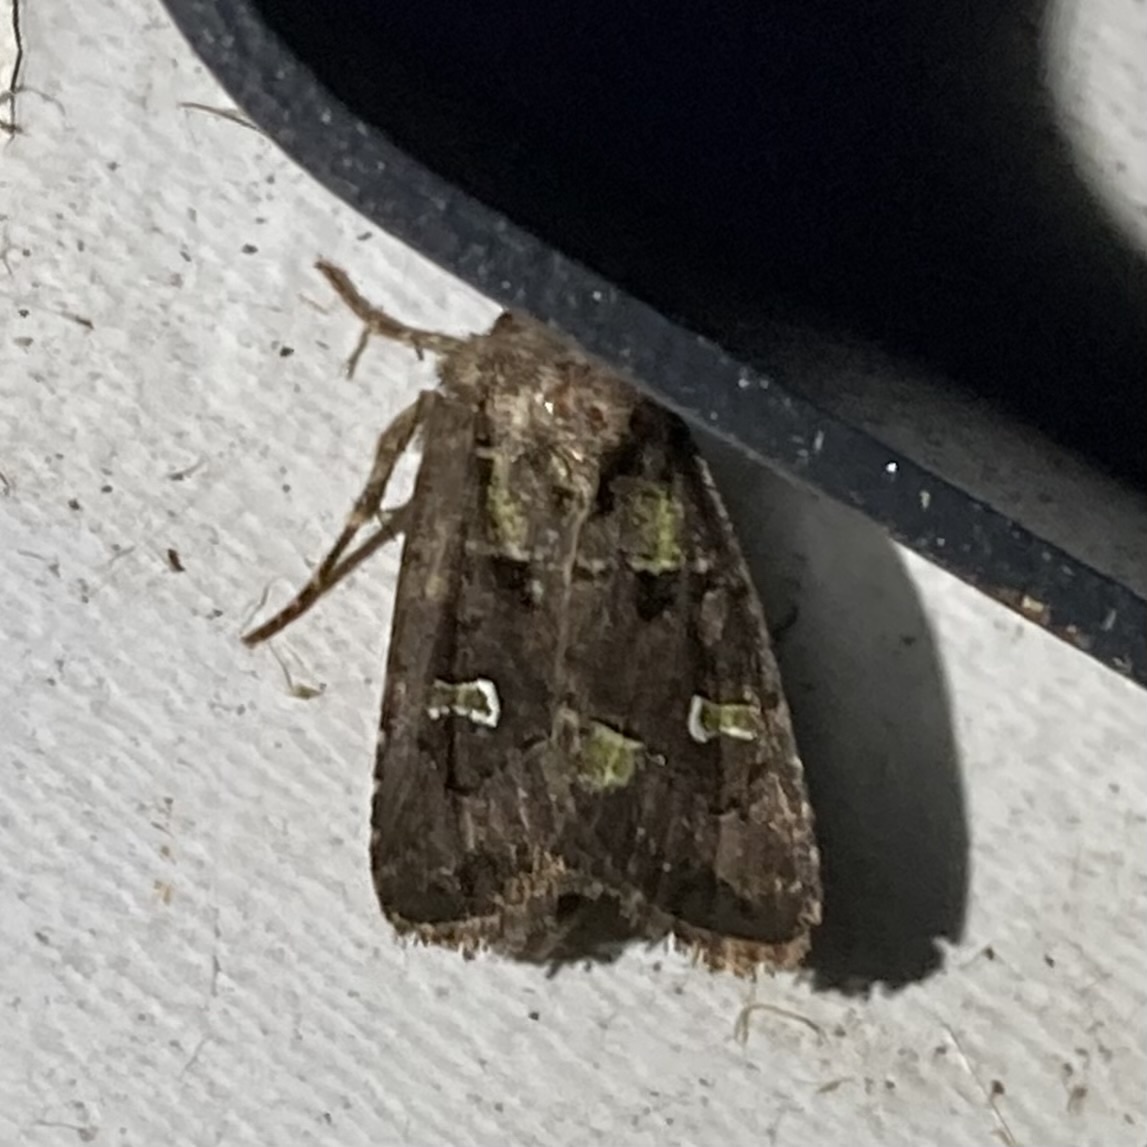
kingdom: Animalia
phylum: Arthropoda
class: Insecta
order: Lepidoptera
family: Noctuidae
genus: Lacinipolia
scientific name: Lacinipolia renigera
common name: Kidney-spotted minor
